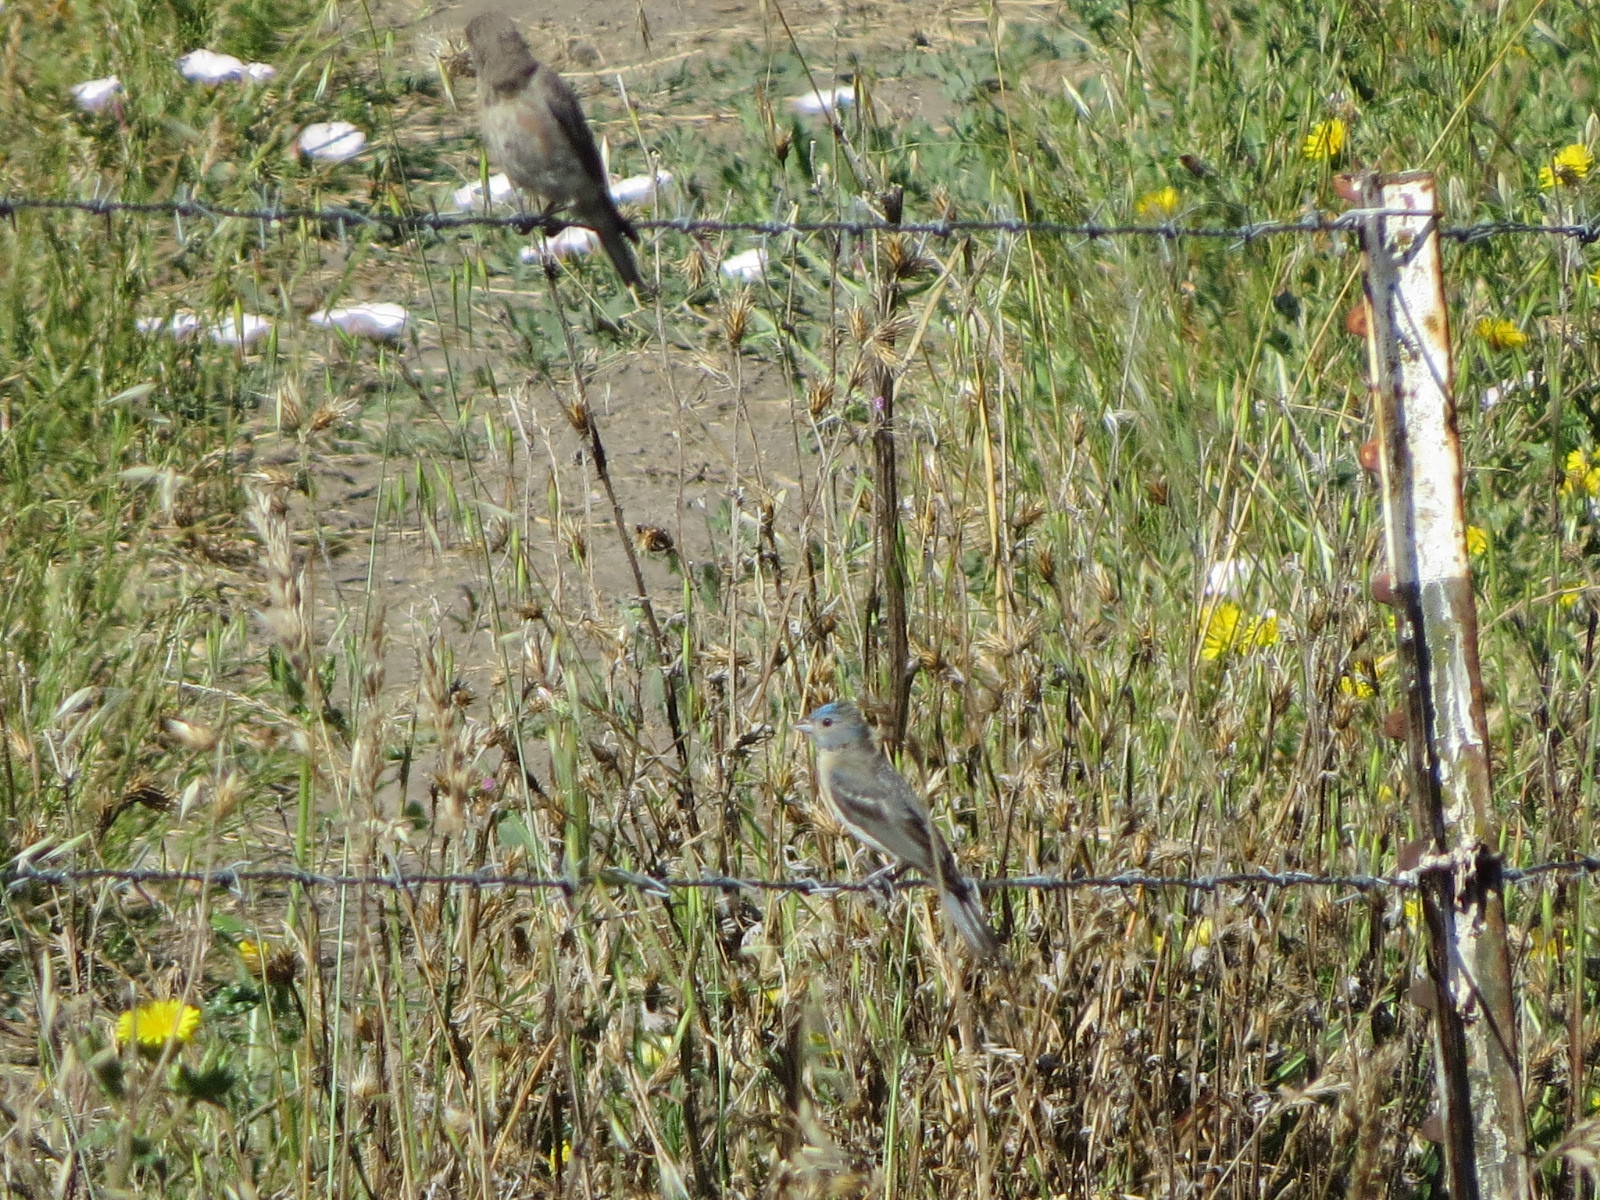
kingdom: Animalia
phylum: Chordata
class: Aves
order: Passeriformes
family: Cardinalidae
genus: Passerina
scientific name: Passerina amoena
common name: Lazuli bunting
